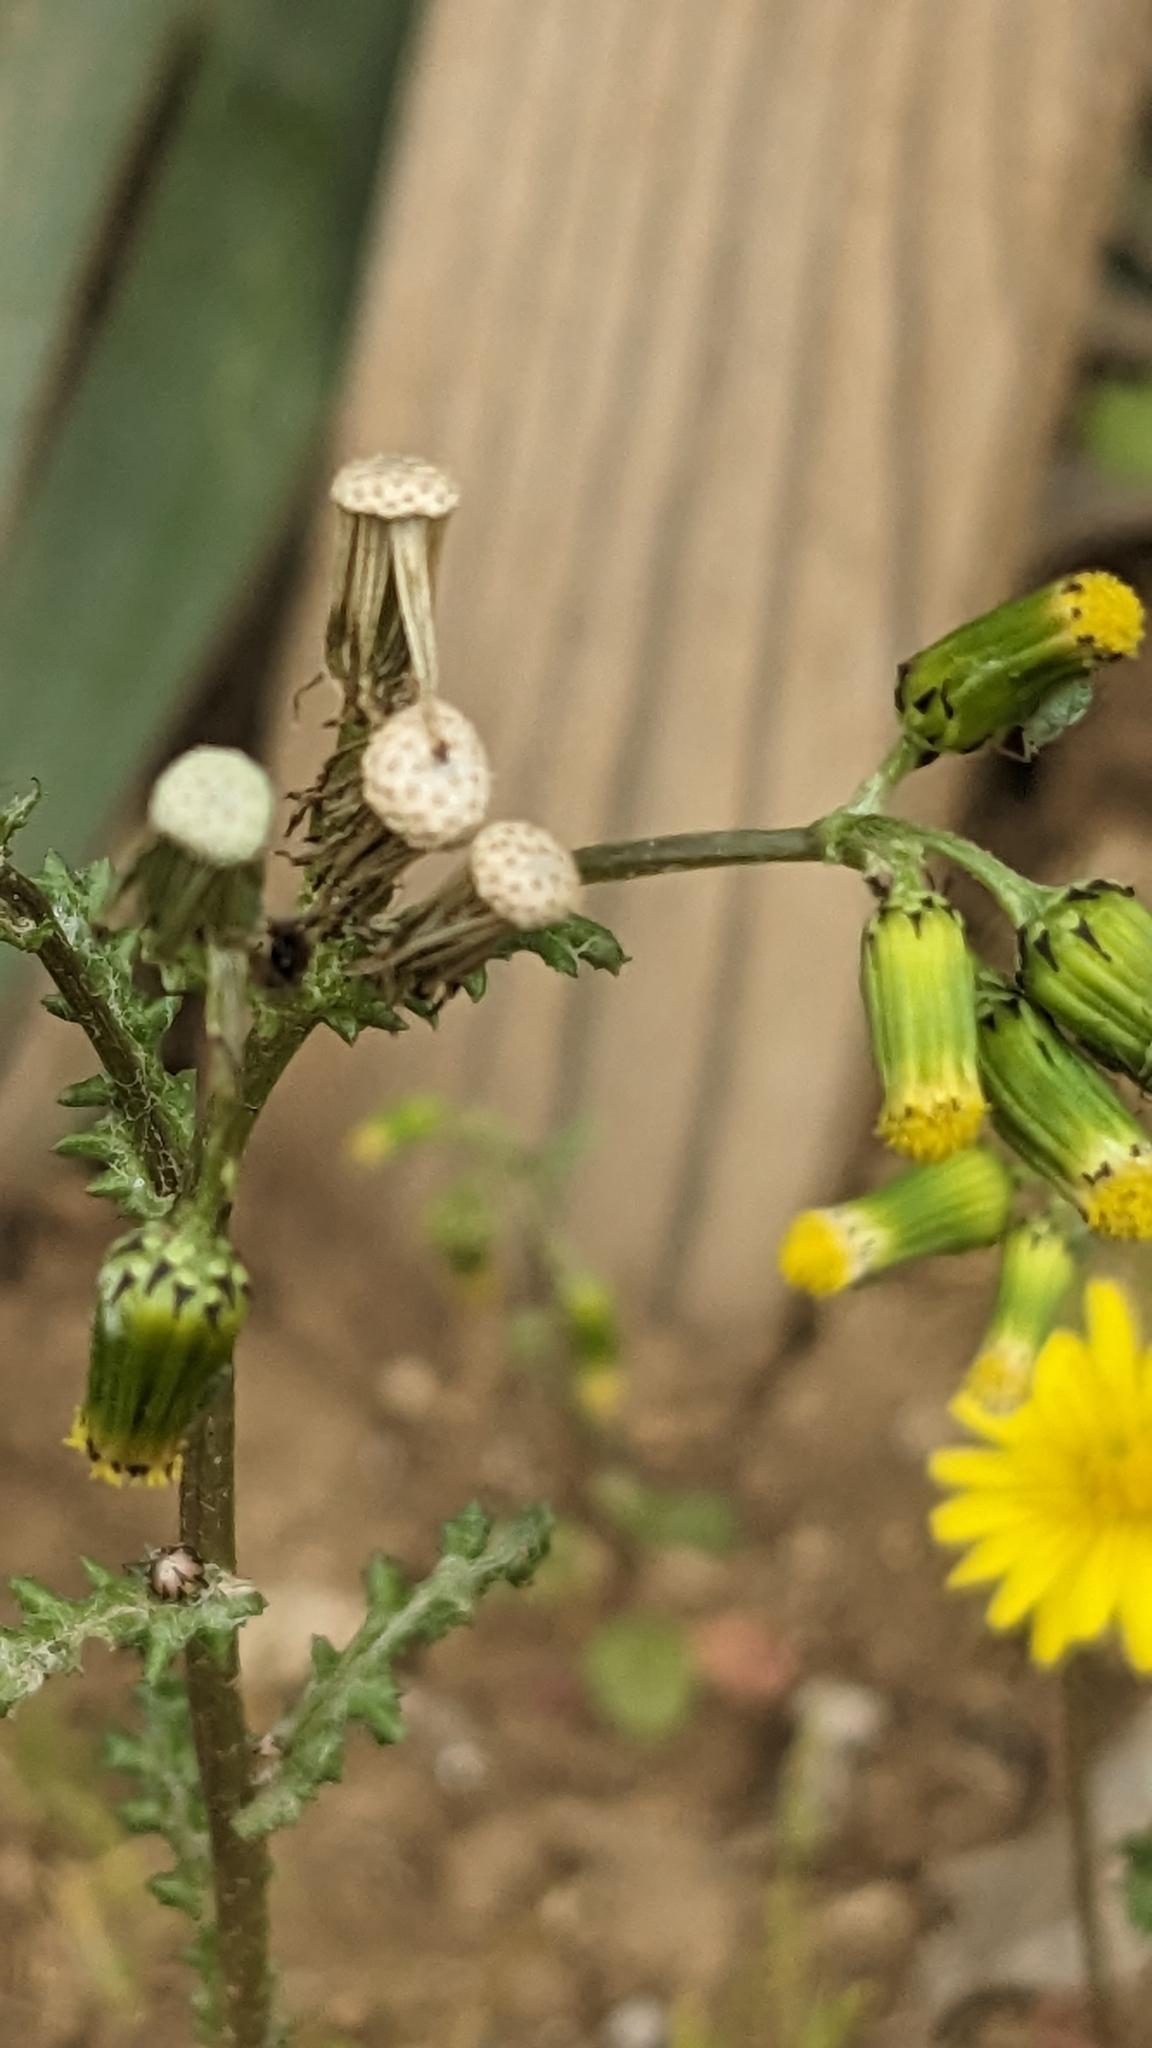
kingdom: Plantae
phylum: Tracheophyta
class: Magnoliopsida
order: Asterales
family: Asteraceae
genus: Senecio
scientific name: Senecio vulgaris
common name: Old-man-in-the-spring
